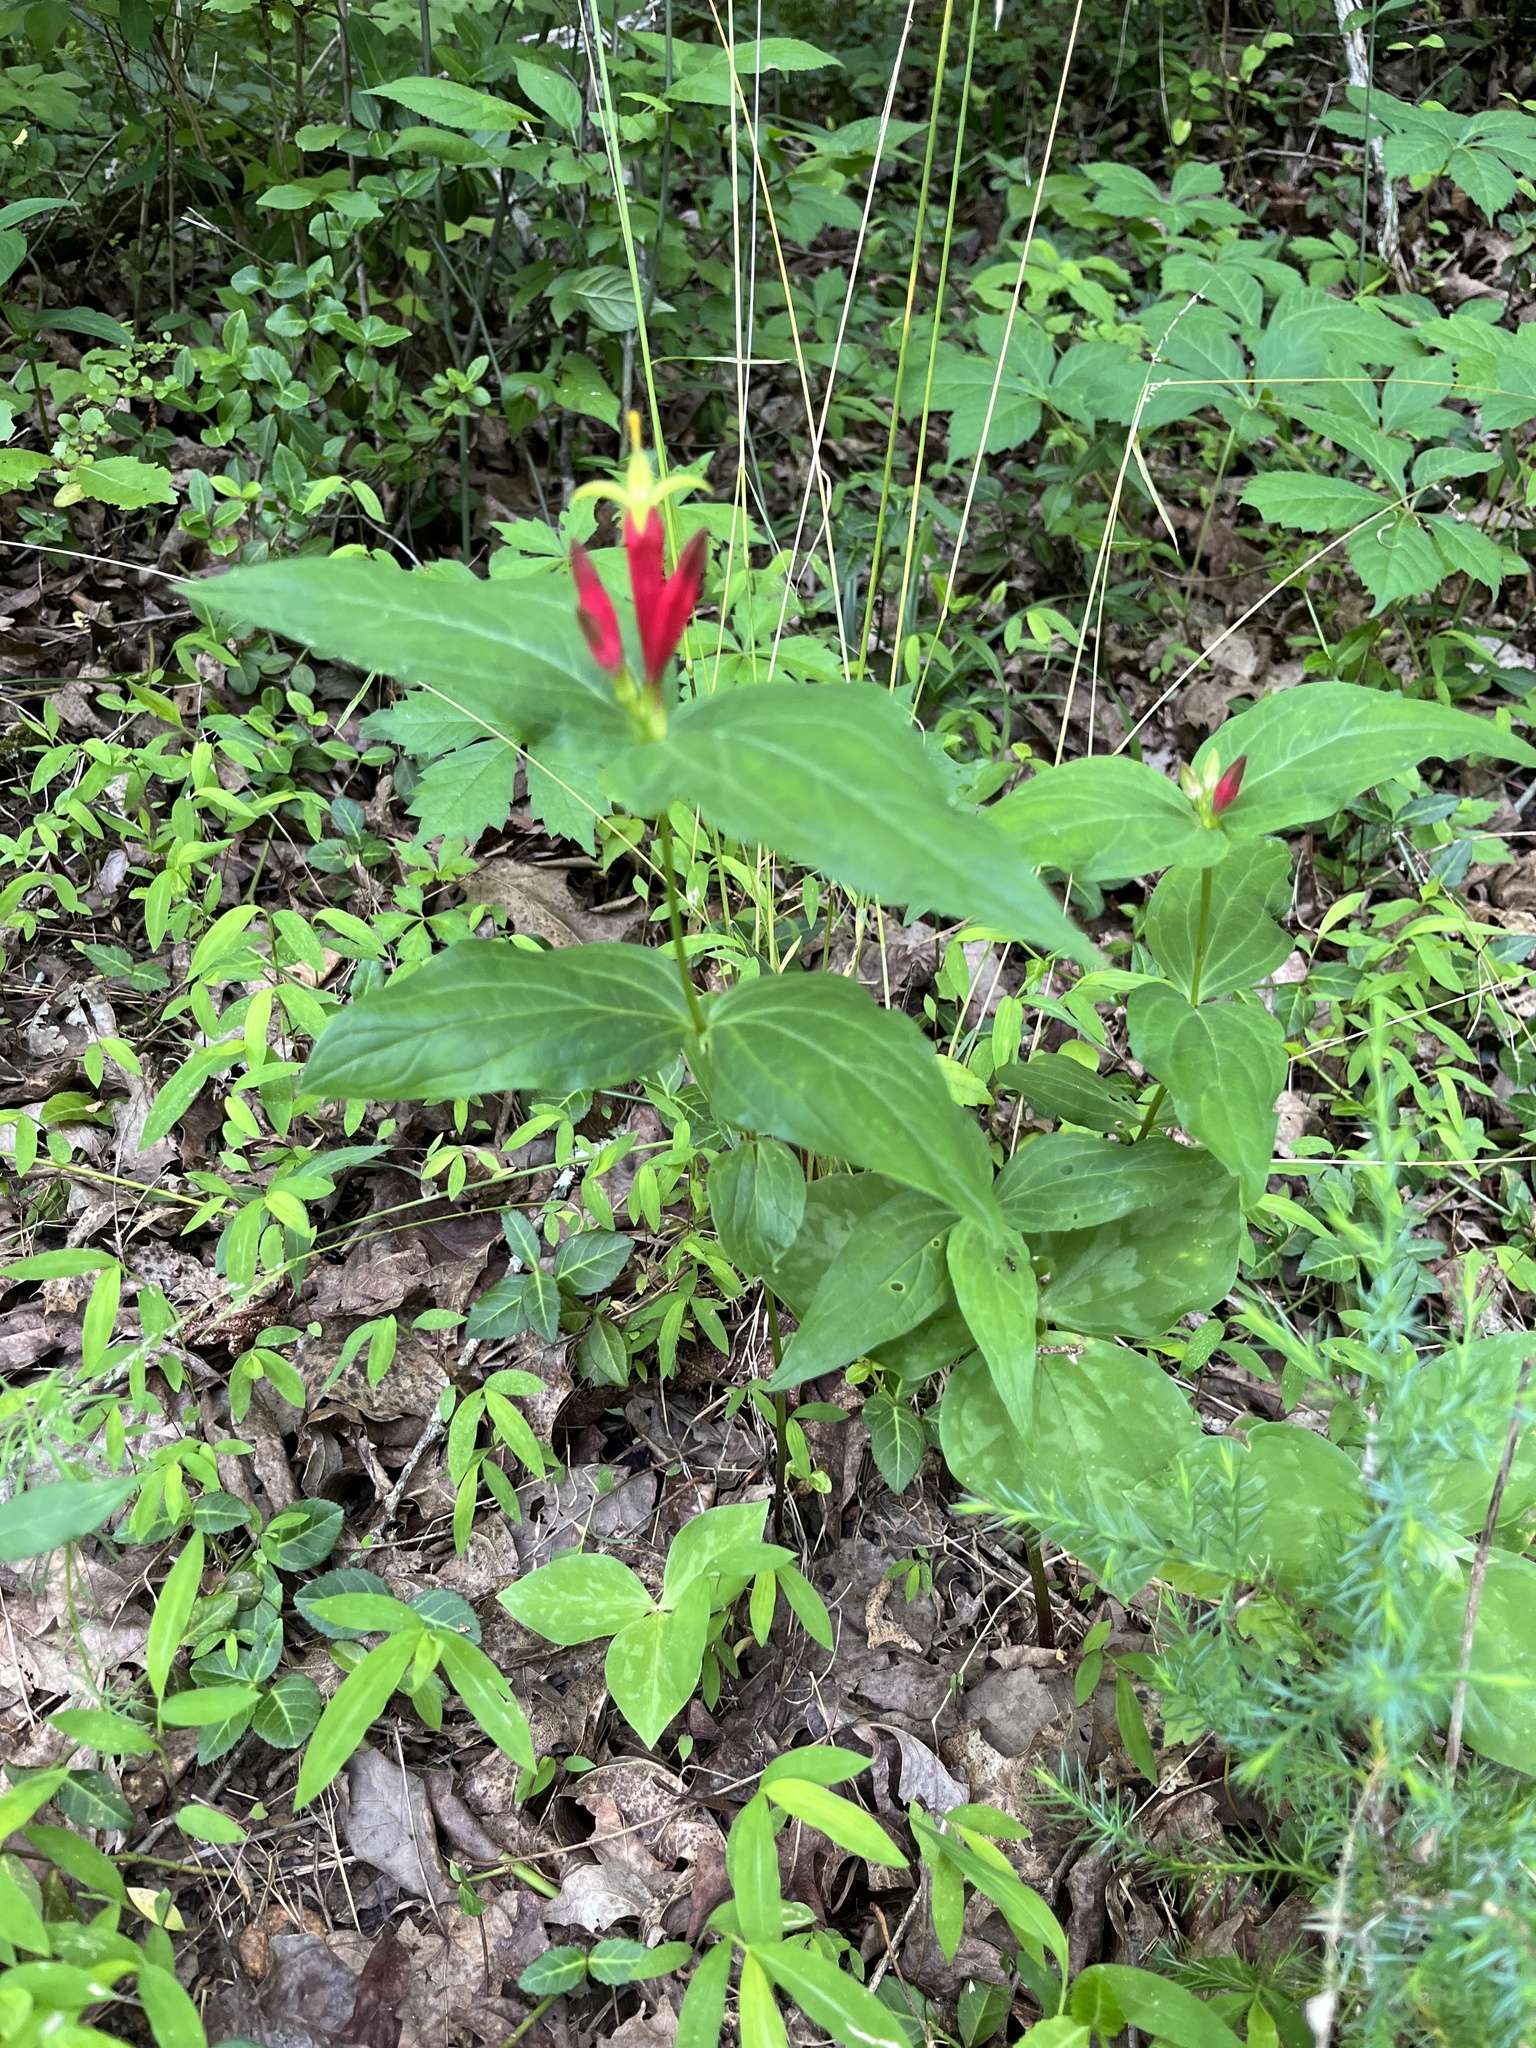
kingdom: Plantae
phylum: Tracheophyta
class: Magnoliopsida
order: Gentianales
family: Loganiaceae
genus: Spigelia
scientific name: Spigelia marilandica
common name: Indian-pink
